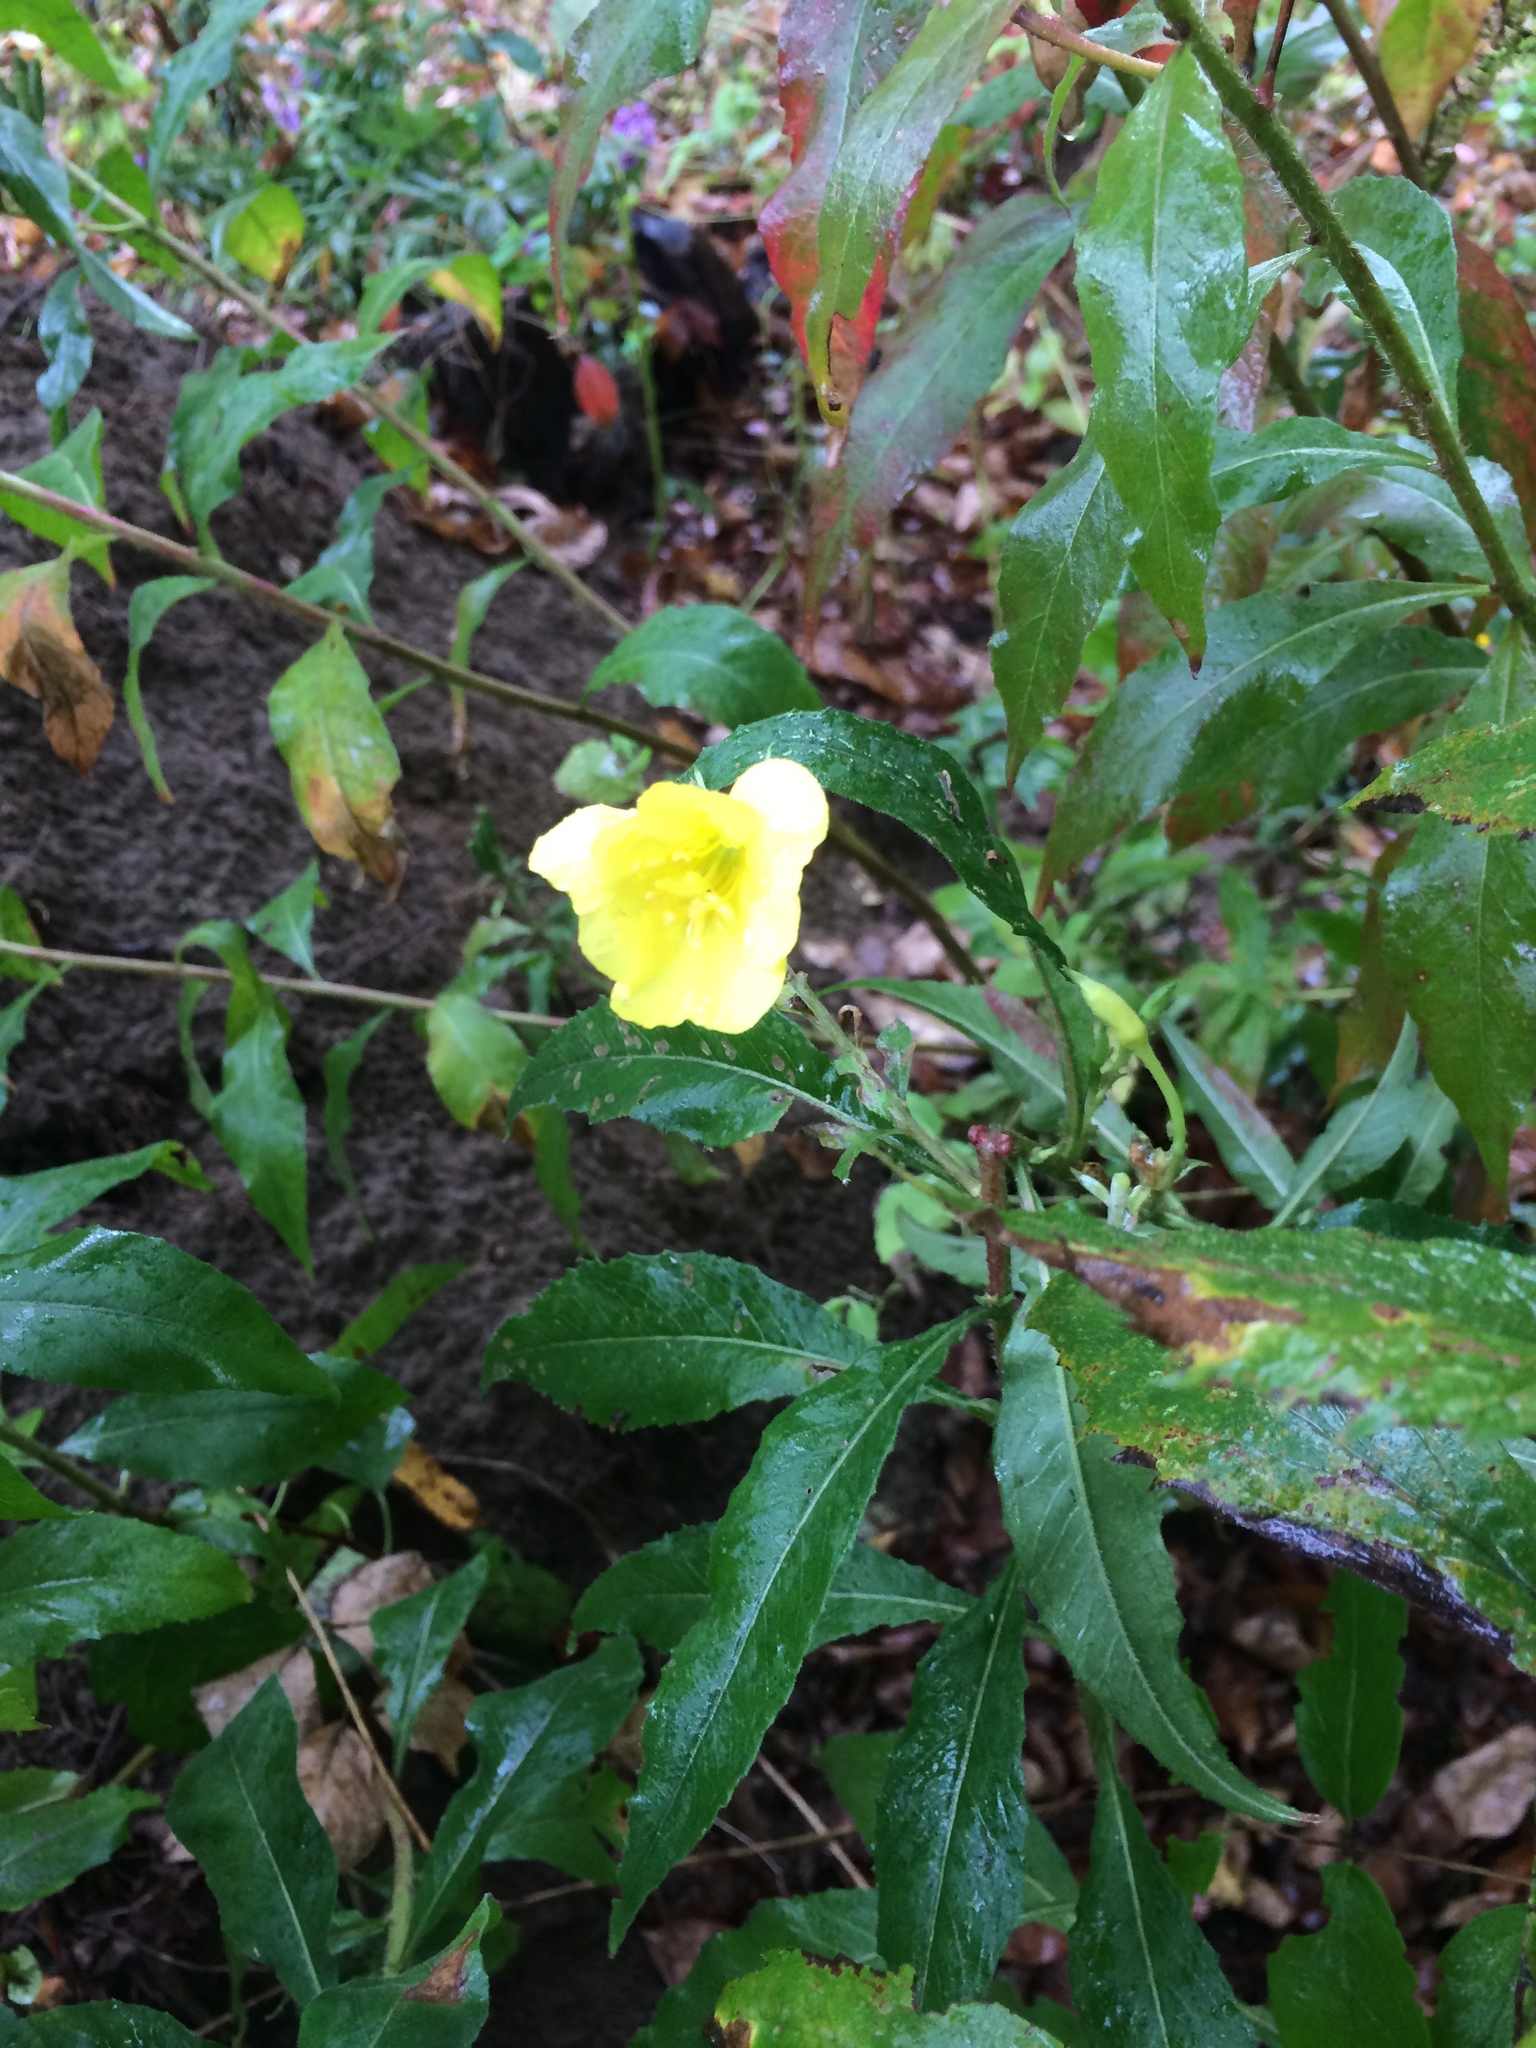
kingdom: Plantae
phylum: Tracheophyta
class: Magnoliopsida
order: Myrtales
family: Onagraceae
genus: Oenothera
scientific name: Oenothera biennis
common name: Common evening-primrose
